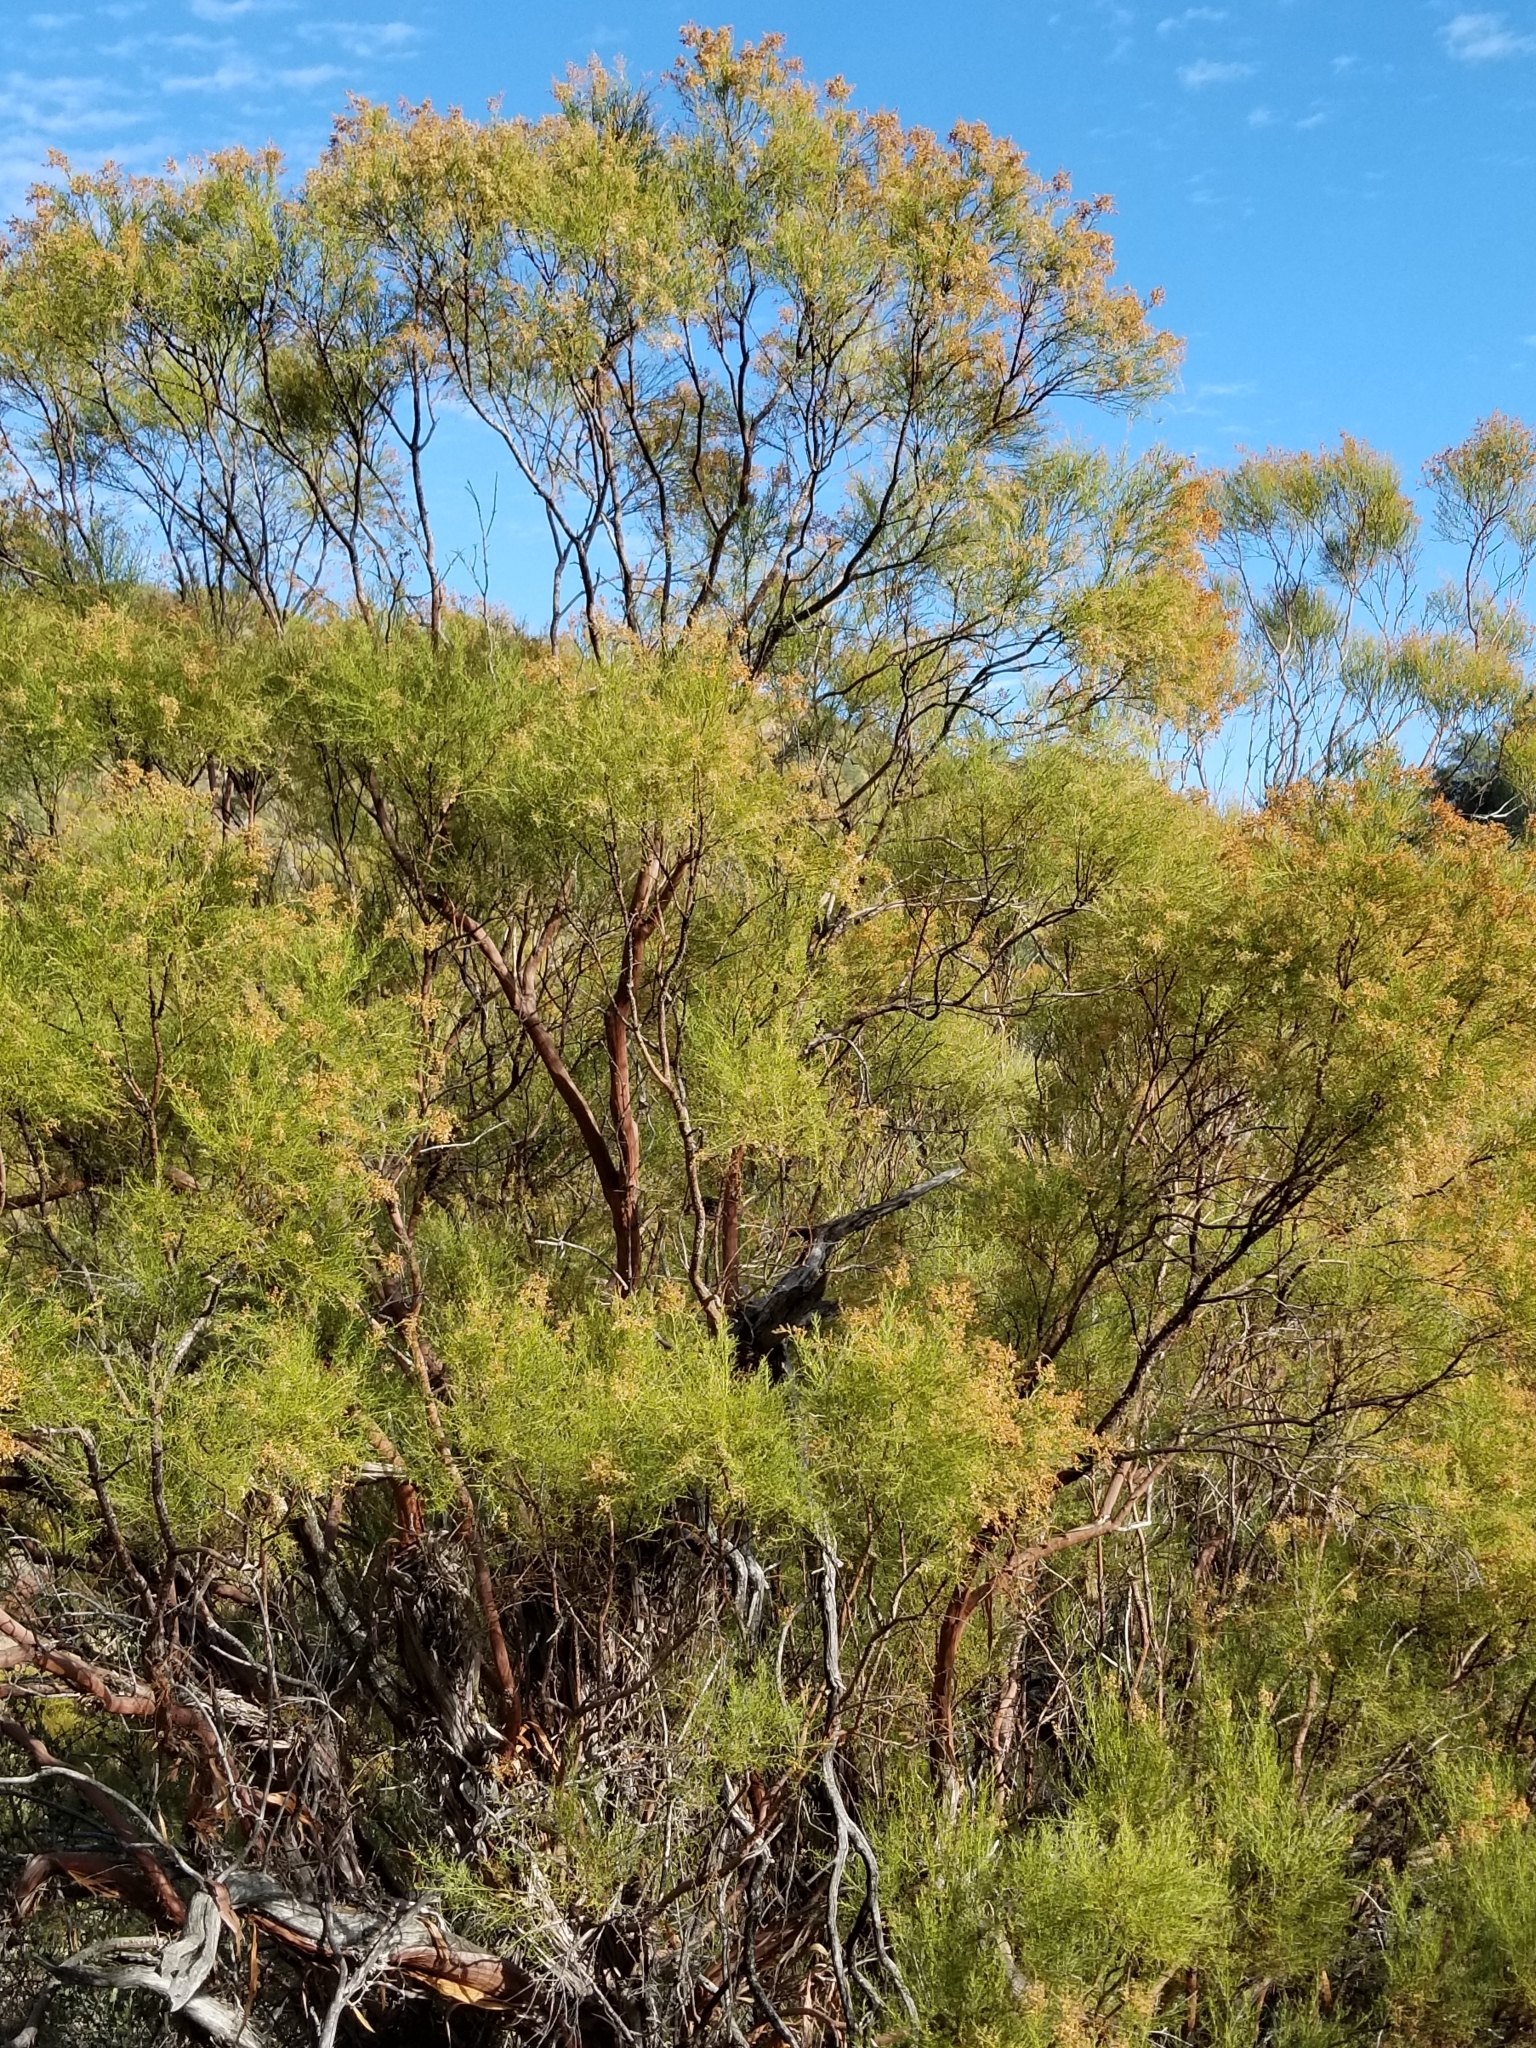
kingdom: Plantae
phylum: Tracheophyta
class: Magnoliopsida
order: Rosales
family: Rosaceae
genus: Adenostoma
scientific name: Adenostoma sparsifolium
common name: Red shank
